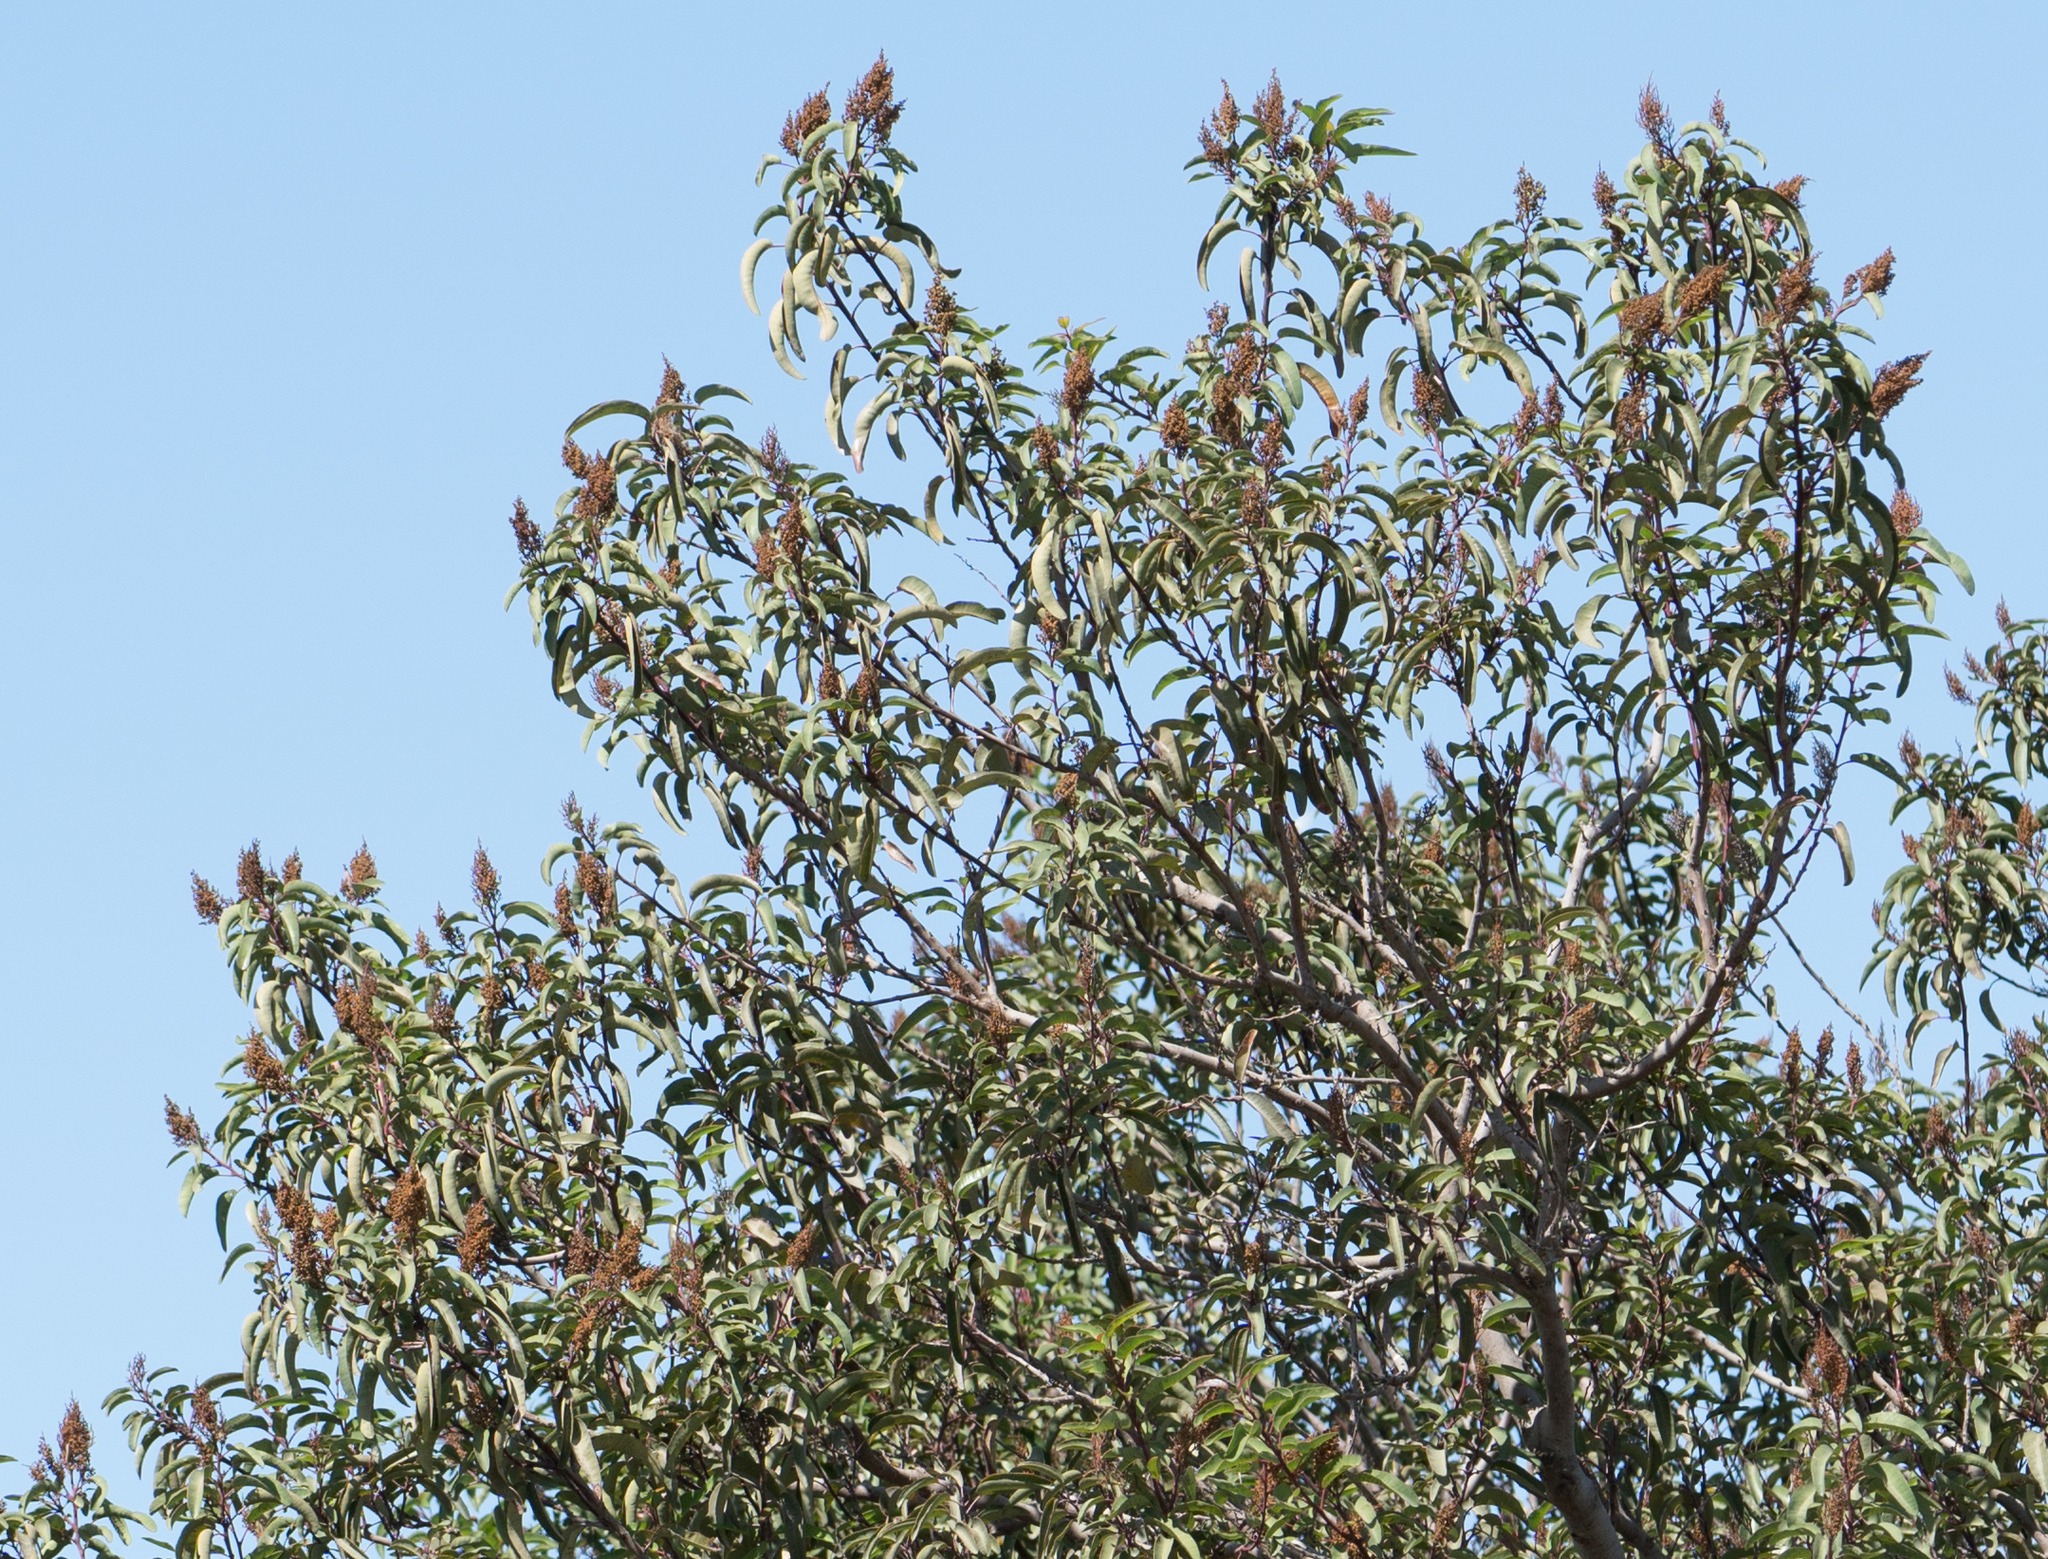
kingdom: Plantae
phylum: Tracheophyta
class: Magnoliopsida
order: Sapindales
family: Anacardiaceae
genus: Malosma
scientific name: Malosma laurina
